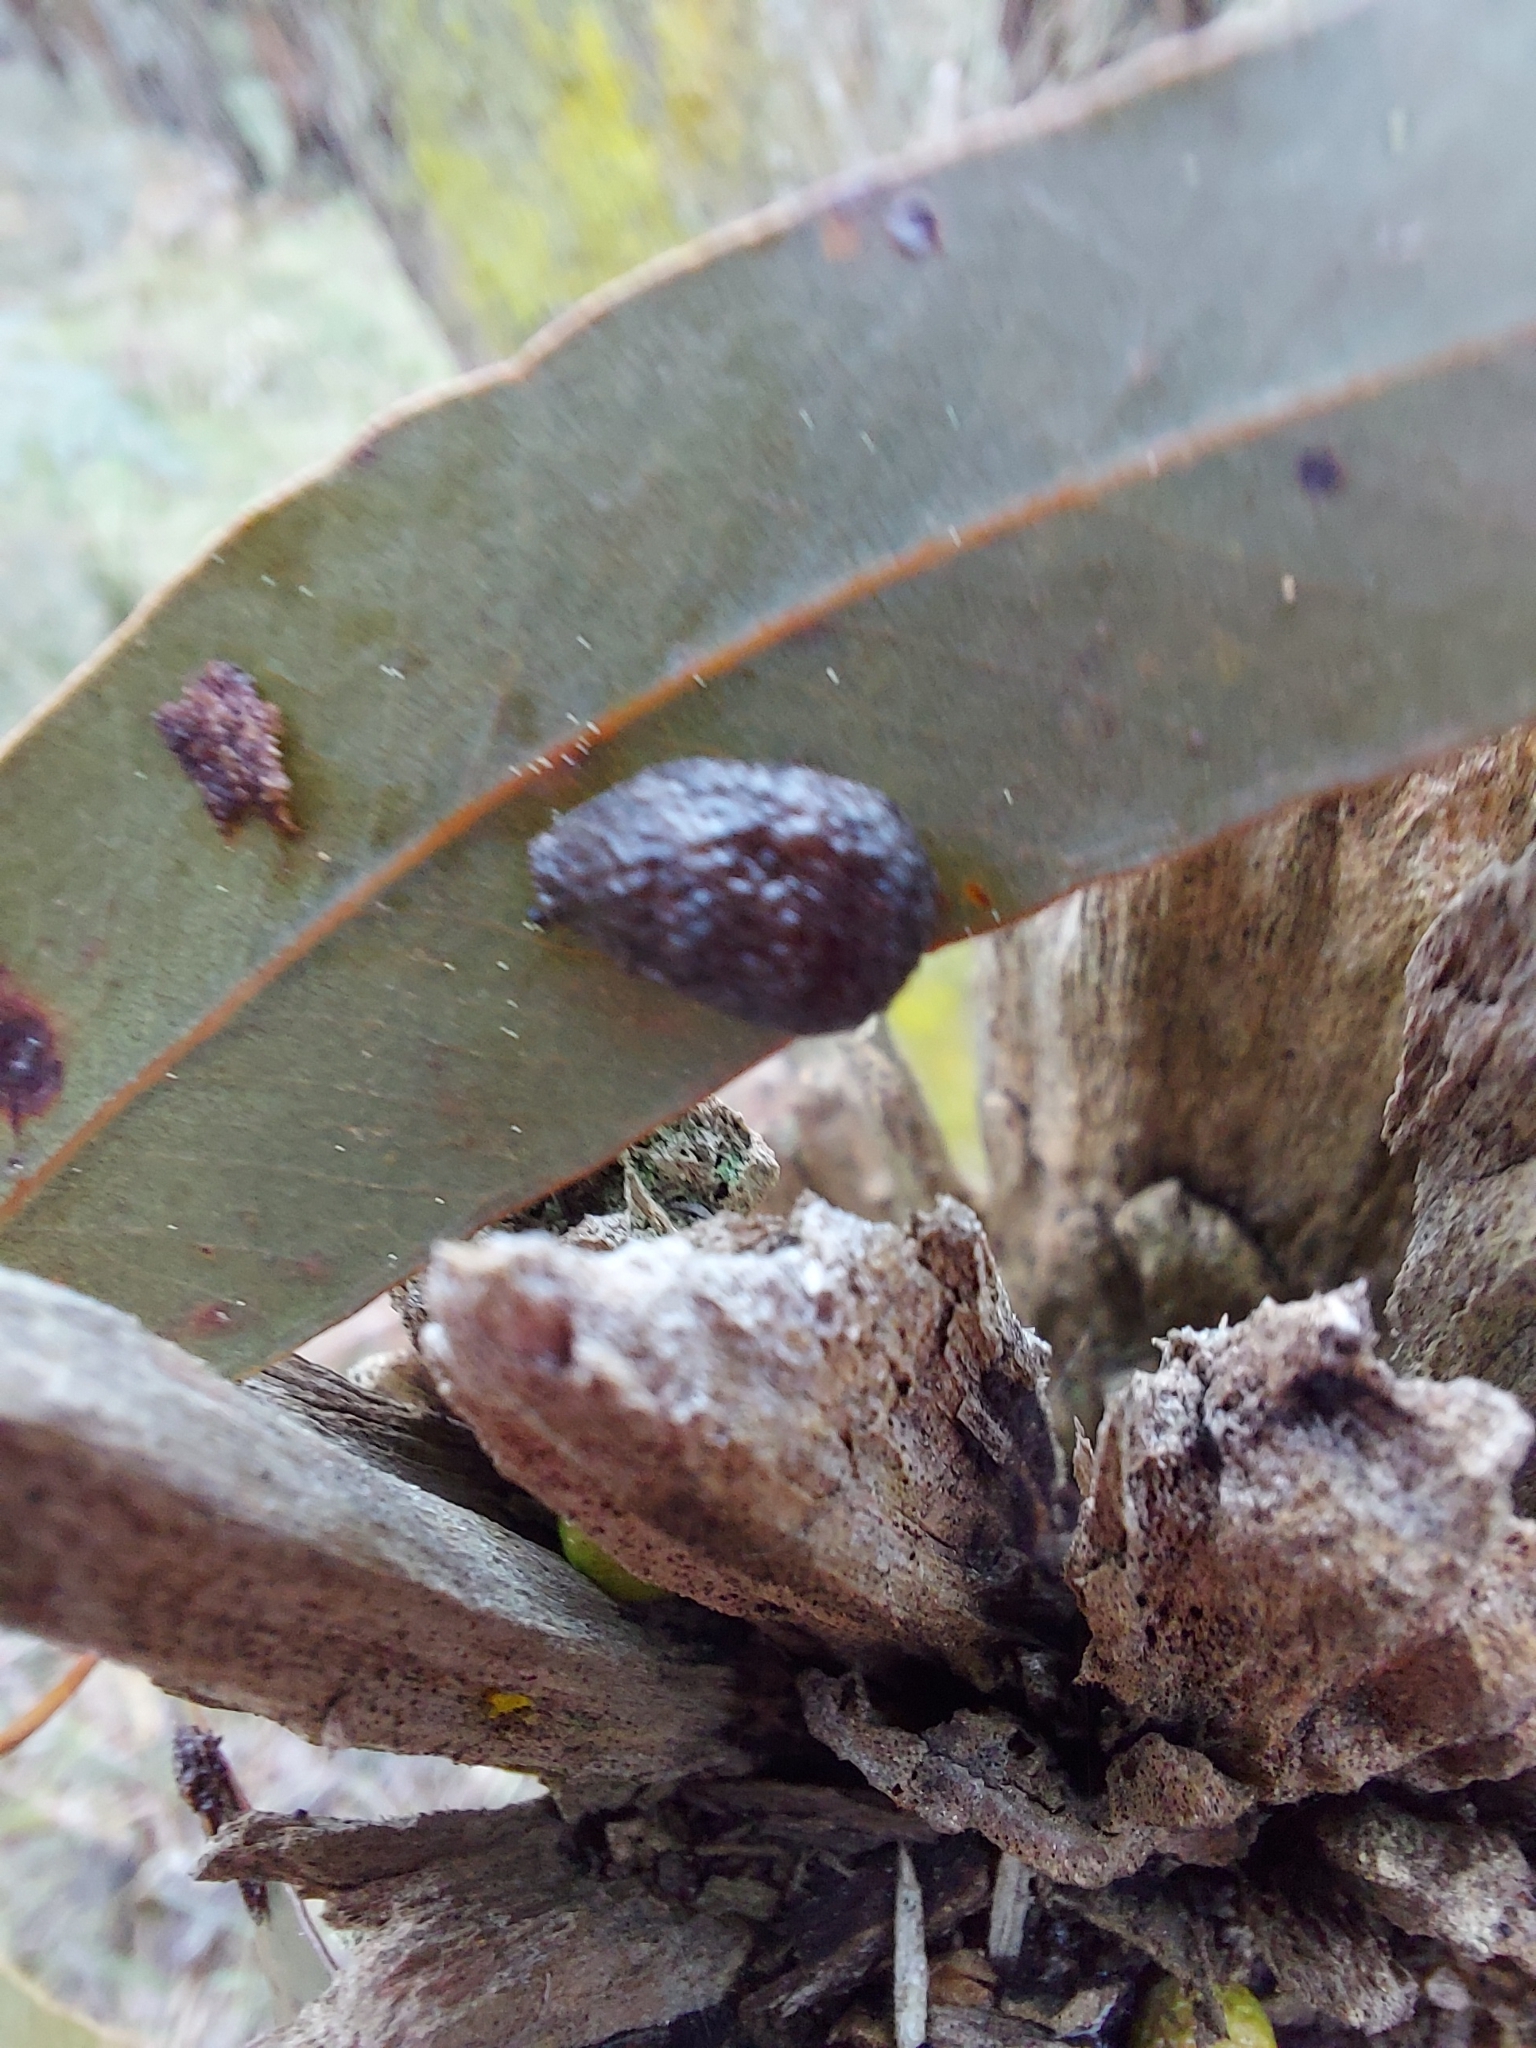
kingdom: Animalia
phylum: Mollusca
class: Gastropoda
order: Stylommatophora
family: Cystopeltidae
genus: Cystopelta
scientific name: Cystopelta
